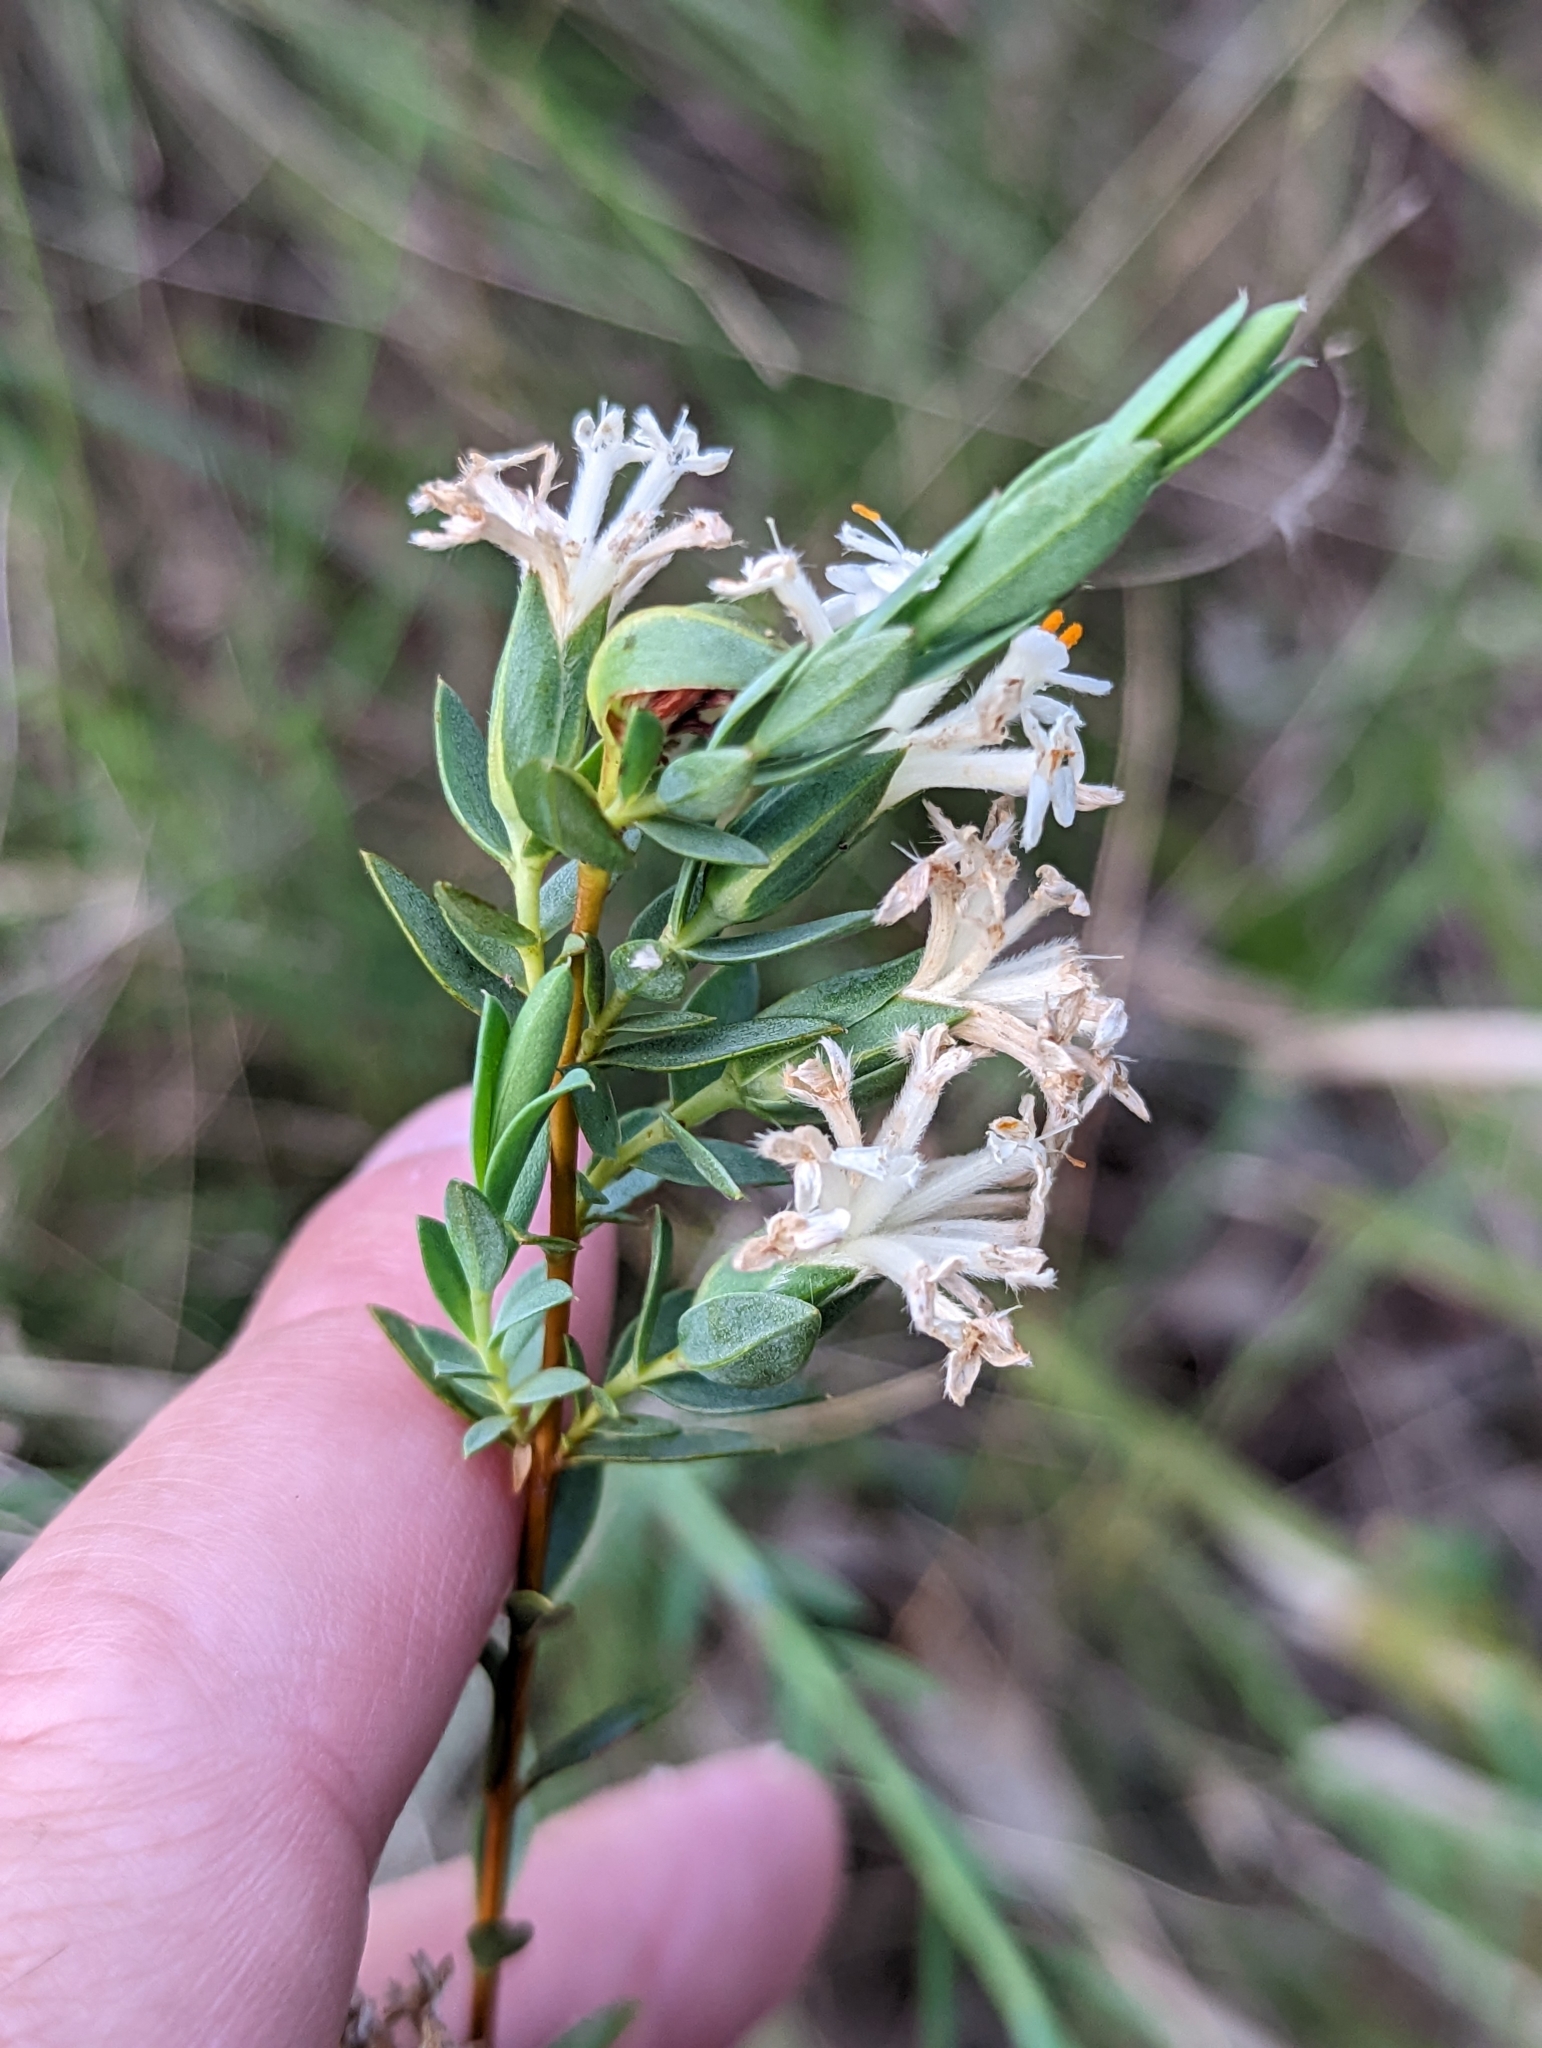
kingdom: Plantae
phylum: Tracheophyta
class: Magnoliopsida
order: Malvales
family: Thymelaeaceae
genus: Pimelea
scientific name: Pimelea glauca
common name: Smooth riceflower
